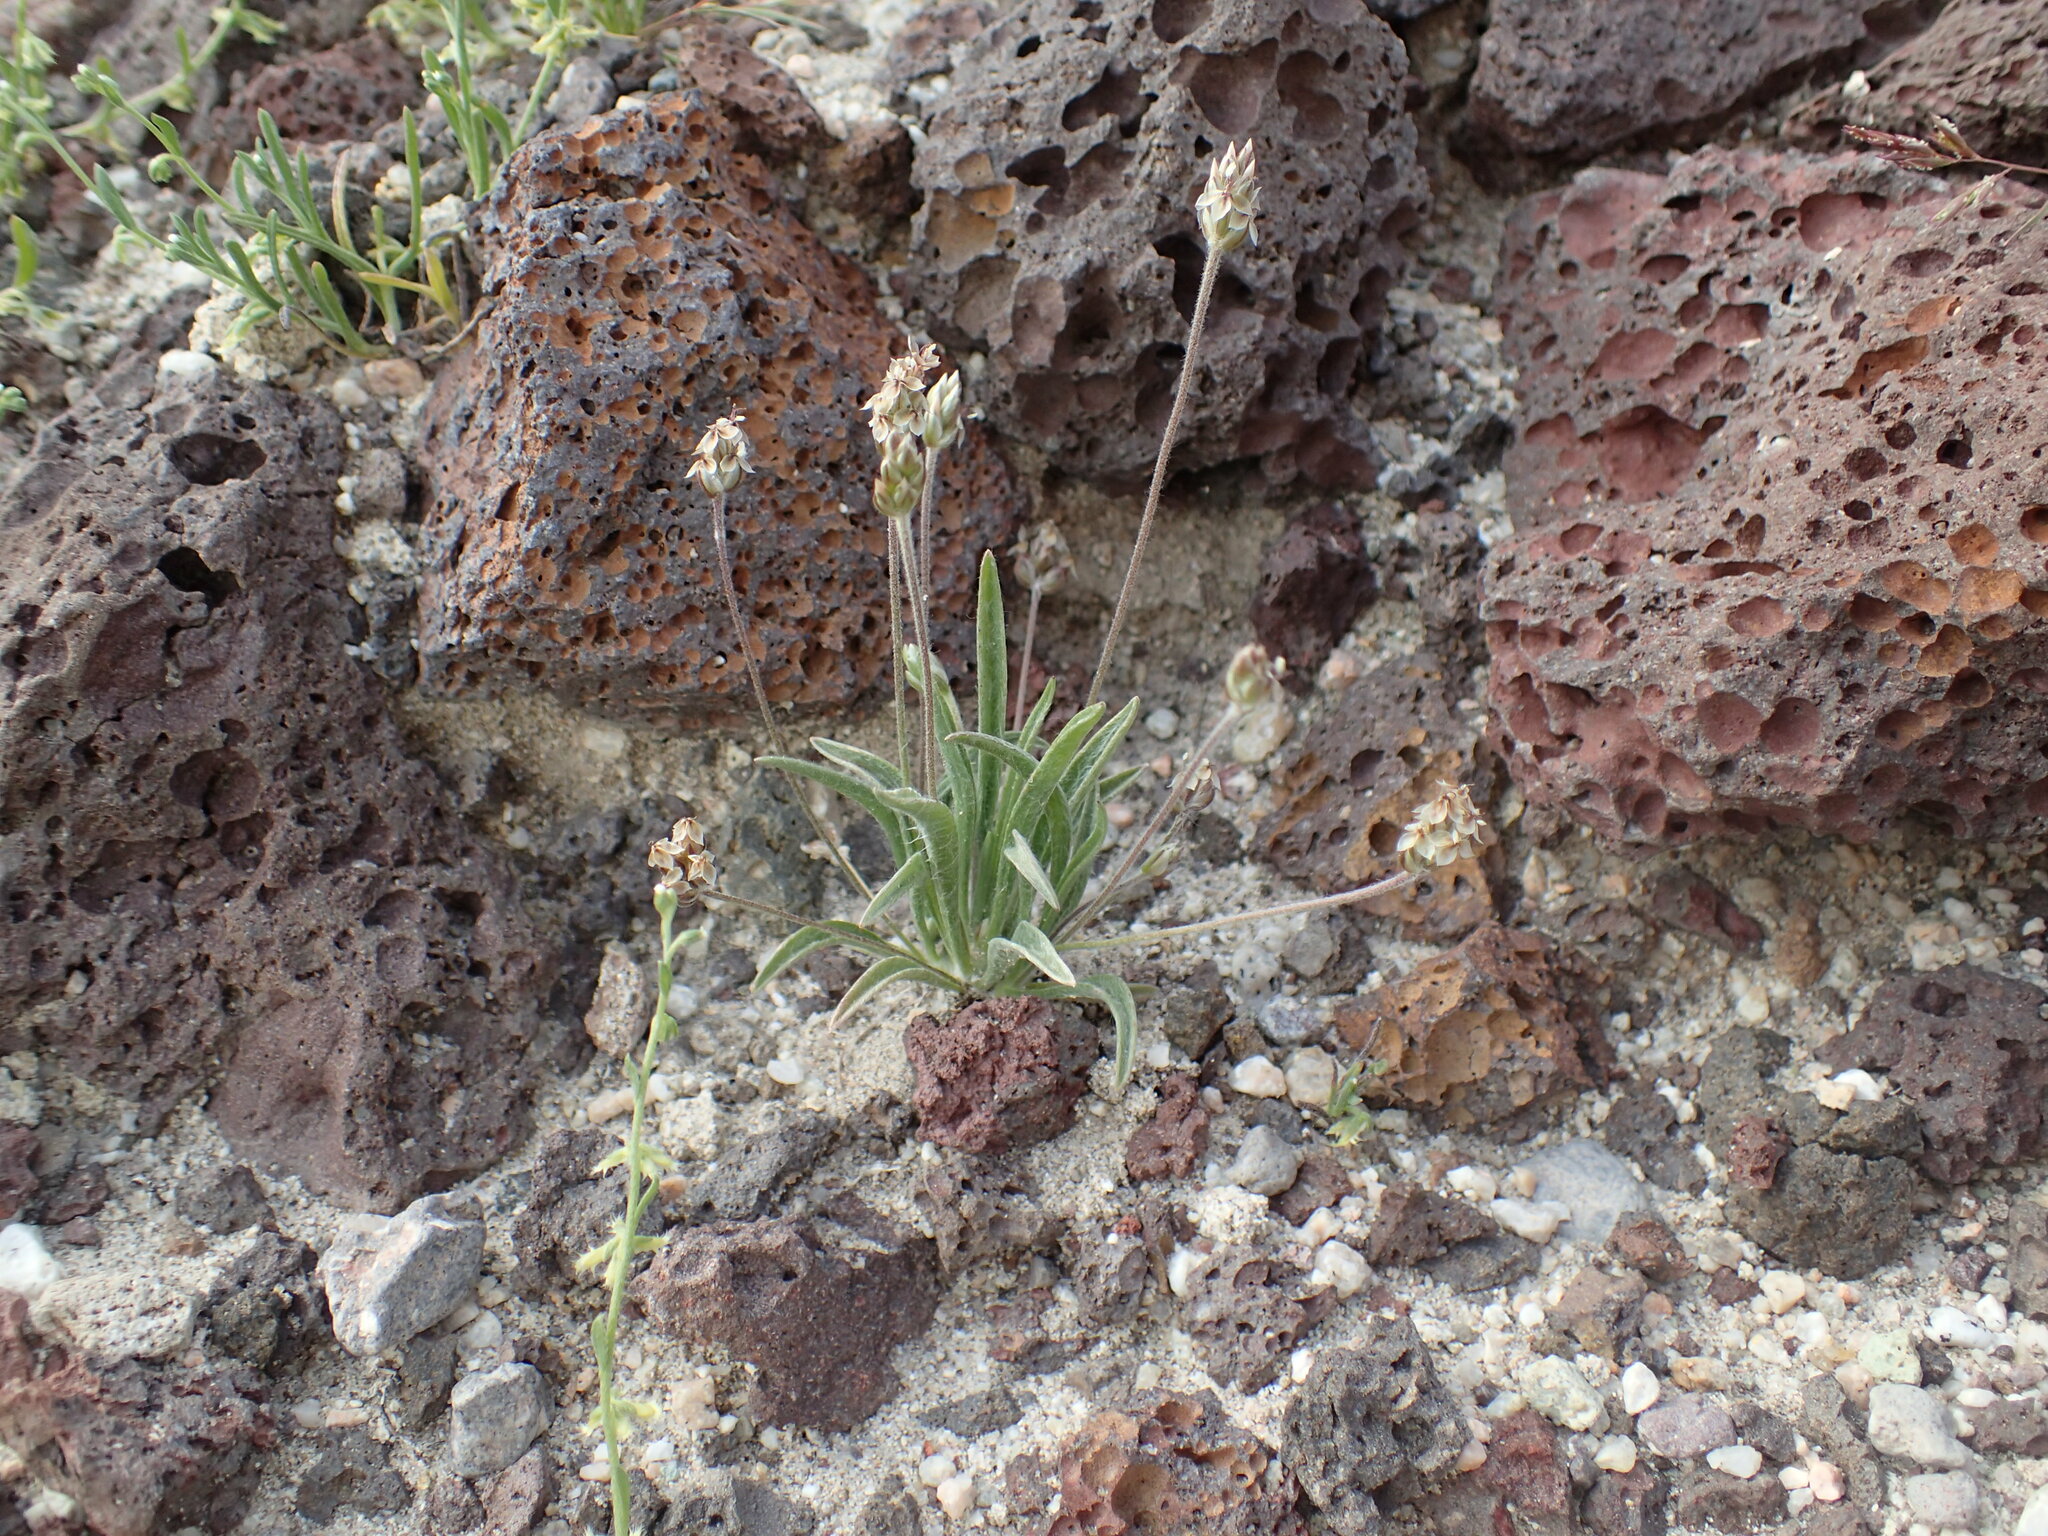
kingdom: Plantae
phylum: Tracheophyta
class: Magnoliopsida
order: Lamiales
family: Plantaginaceae
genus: Plantago
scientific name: Plantago ovata
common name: Blond plantain
